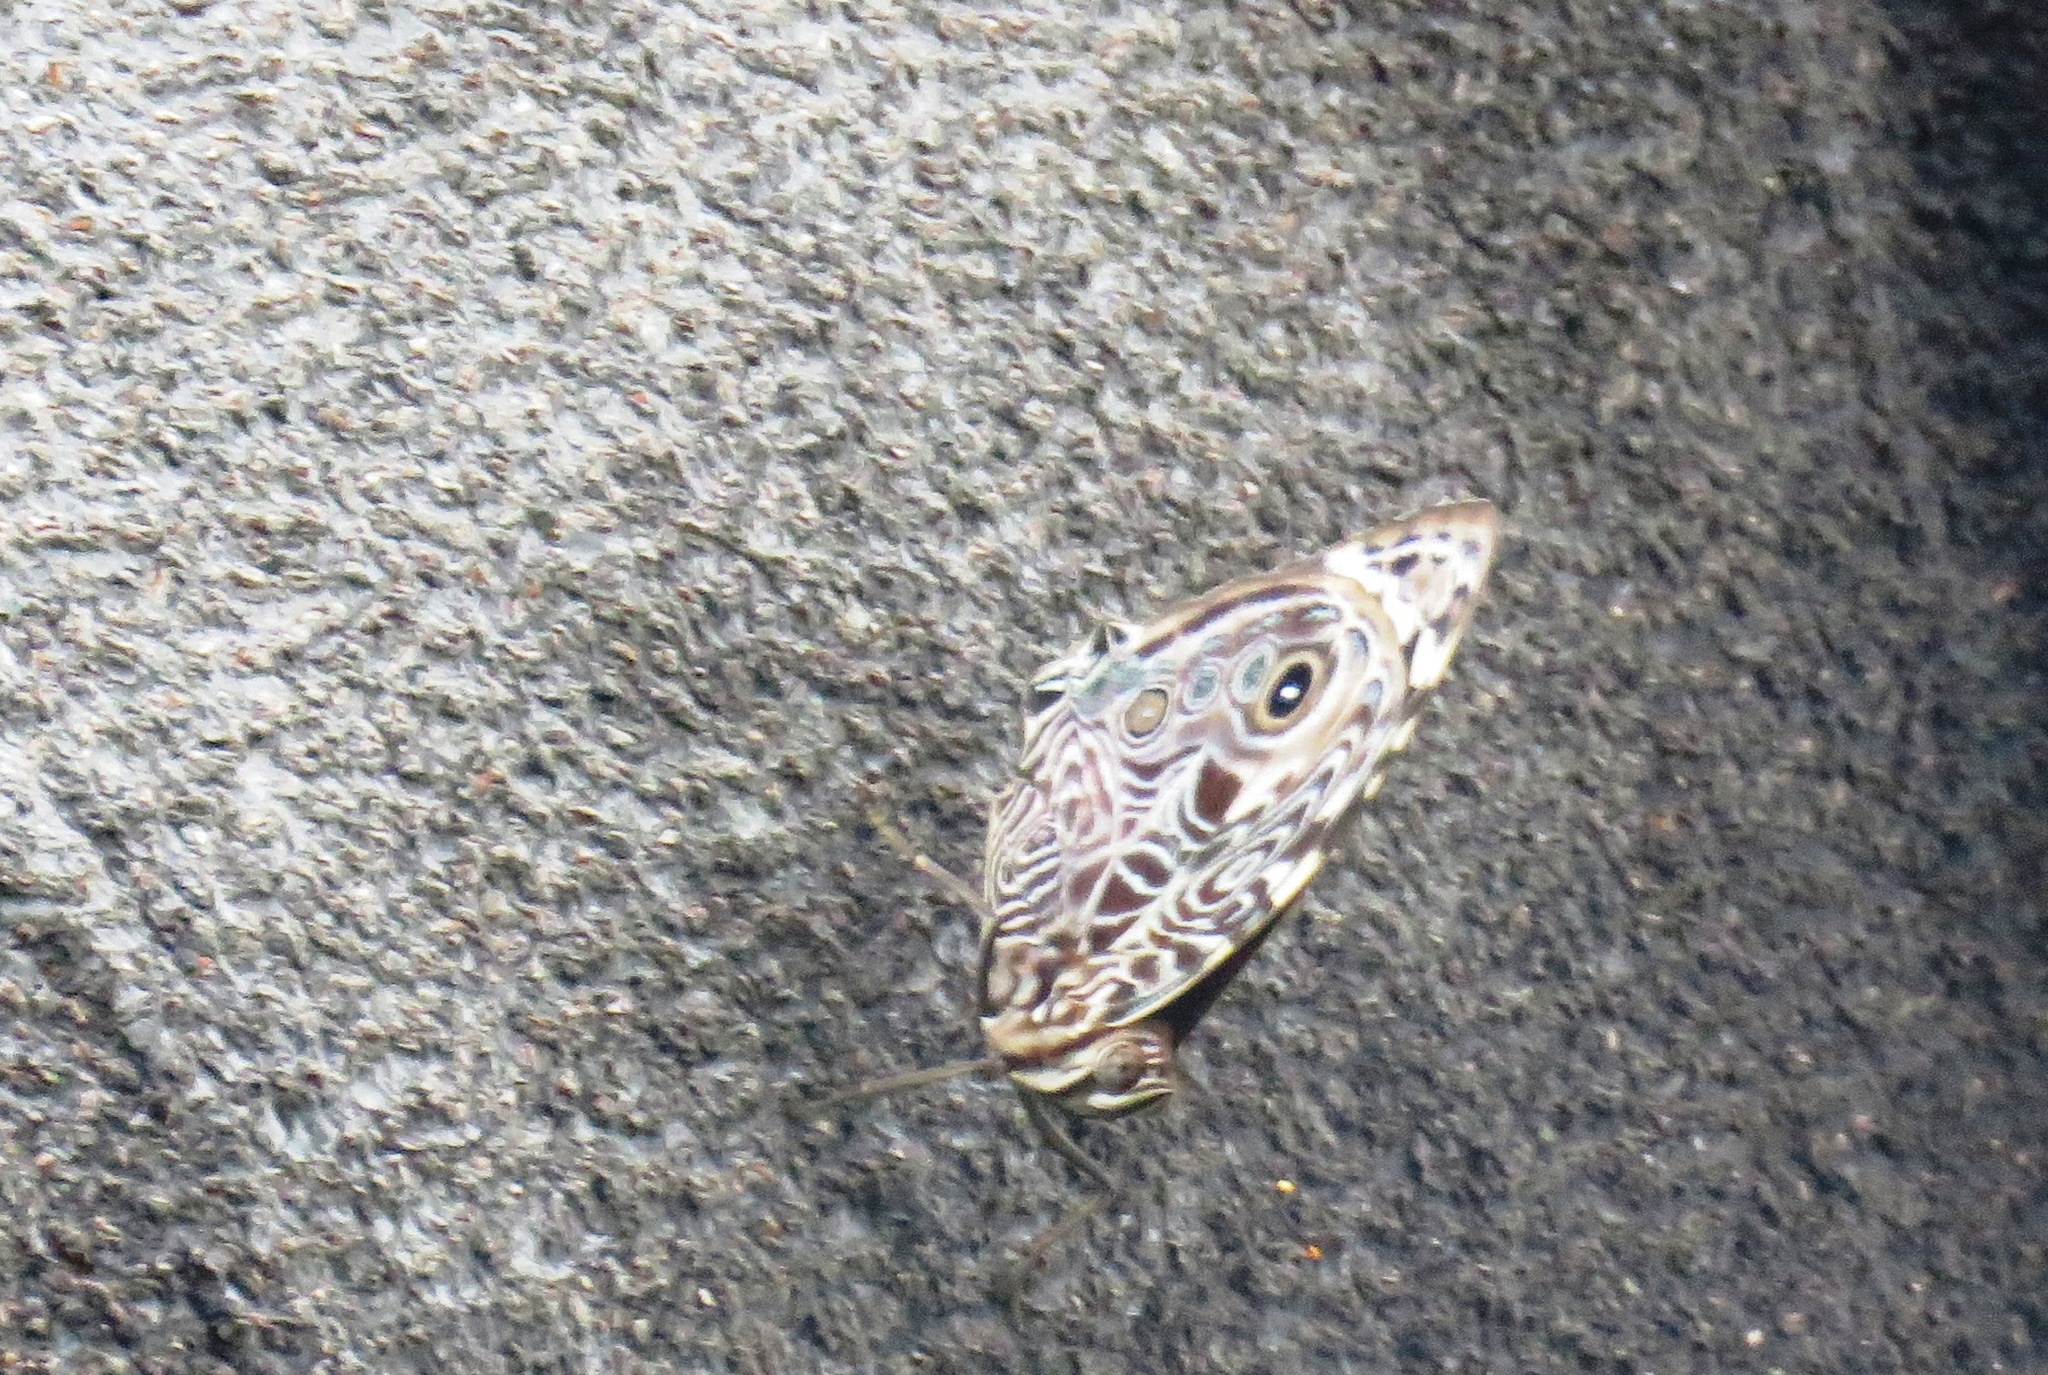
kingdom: Animalia
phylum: Arthropoda
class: Insecta
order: Lepidoptera
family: Nymphalidae
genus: Smyrna
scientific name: Smyrna blomfildia
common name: Blomfild's beauty
